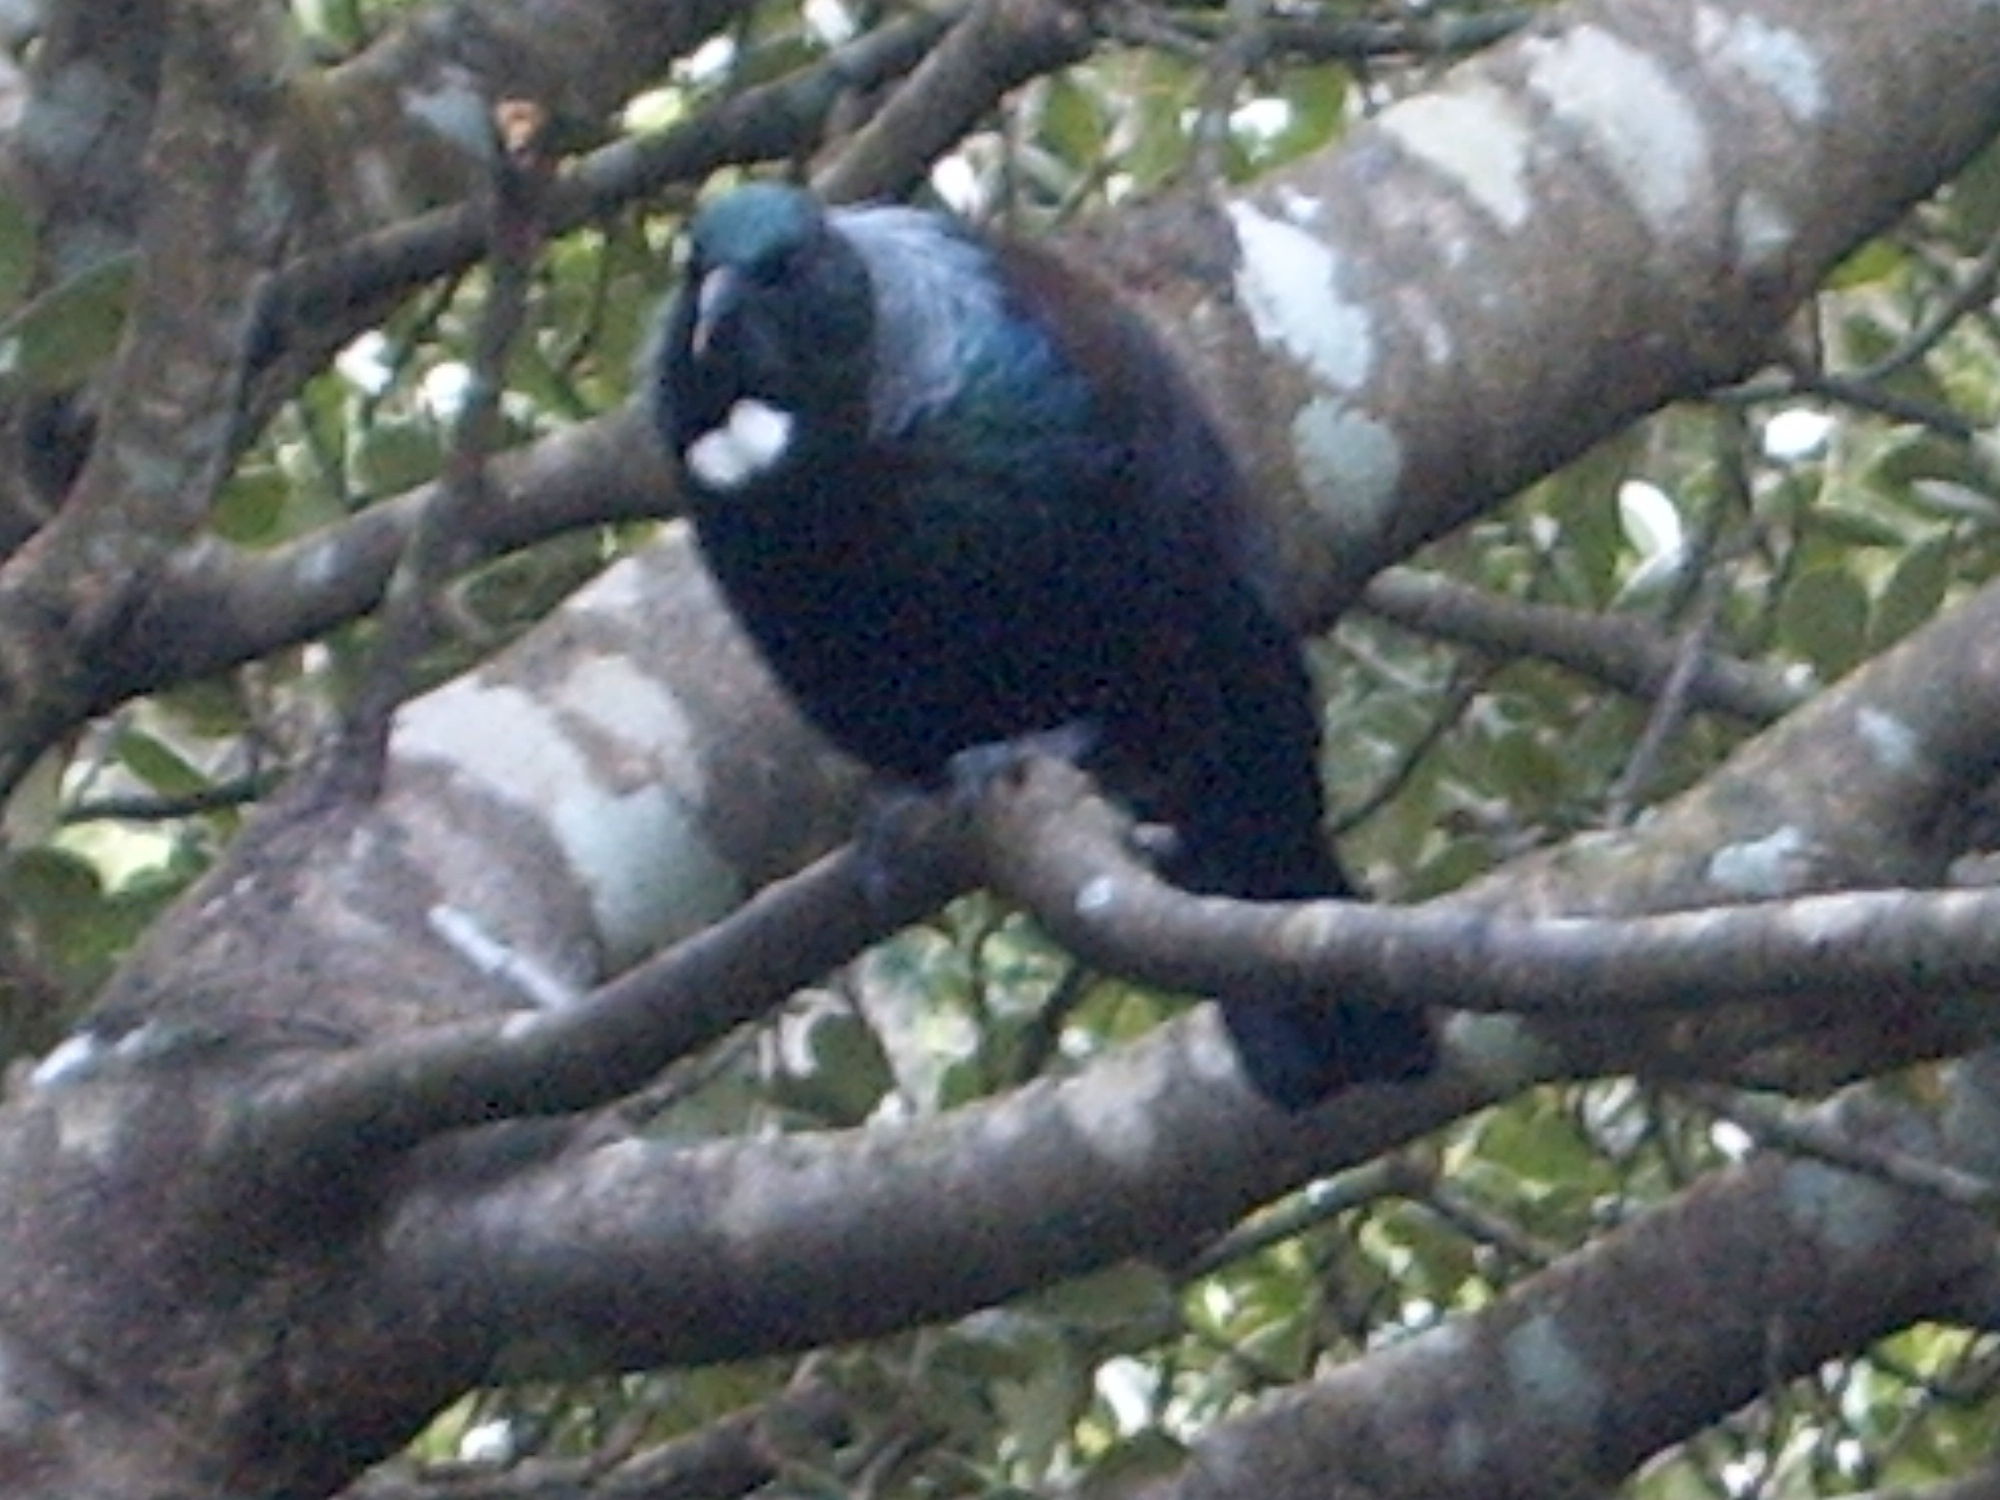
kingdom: Animalia
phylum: Chordata
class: Aves
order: Passeriformes
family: Meliphagidae
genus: Prosthemadera
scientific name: Prosthemadera novaeseelandiae
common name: Tui
